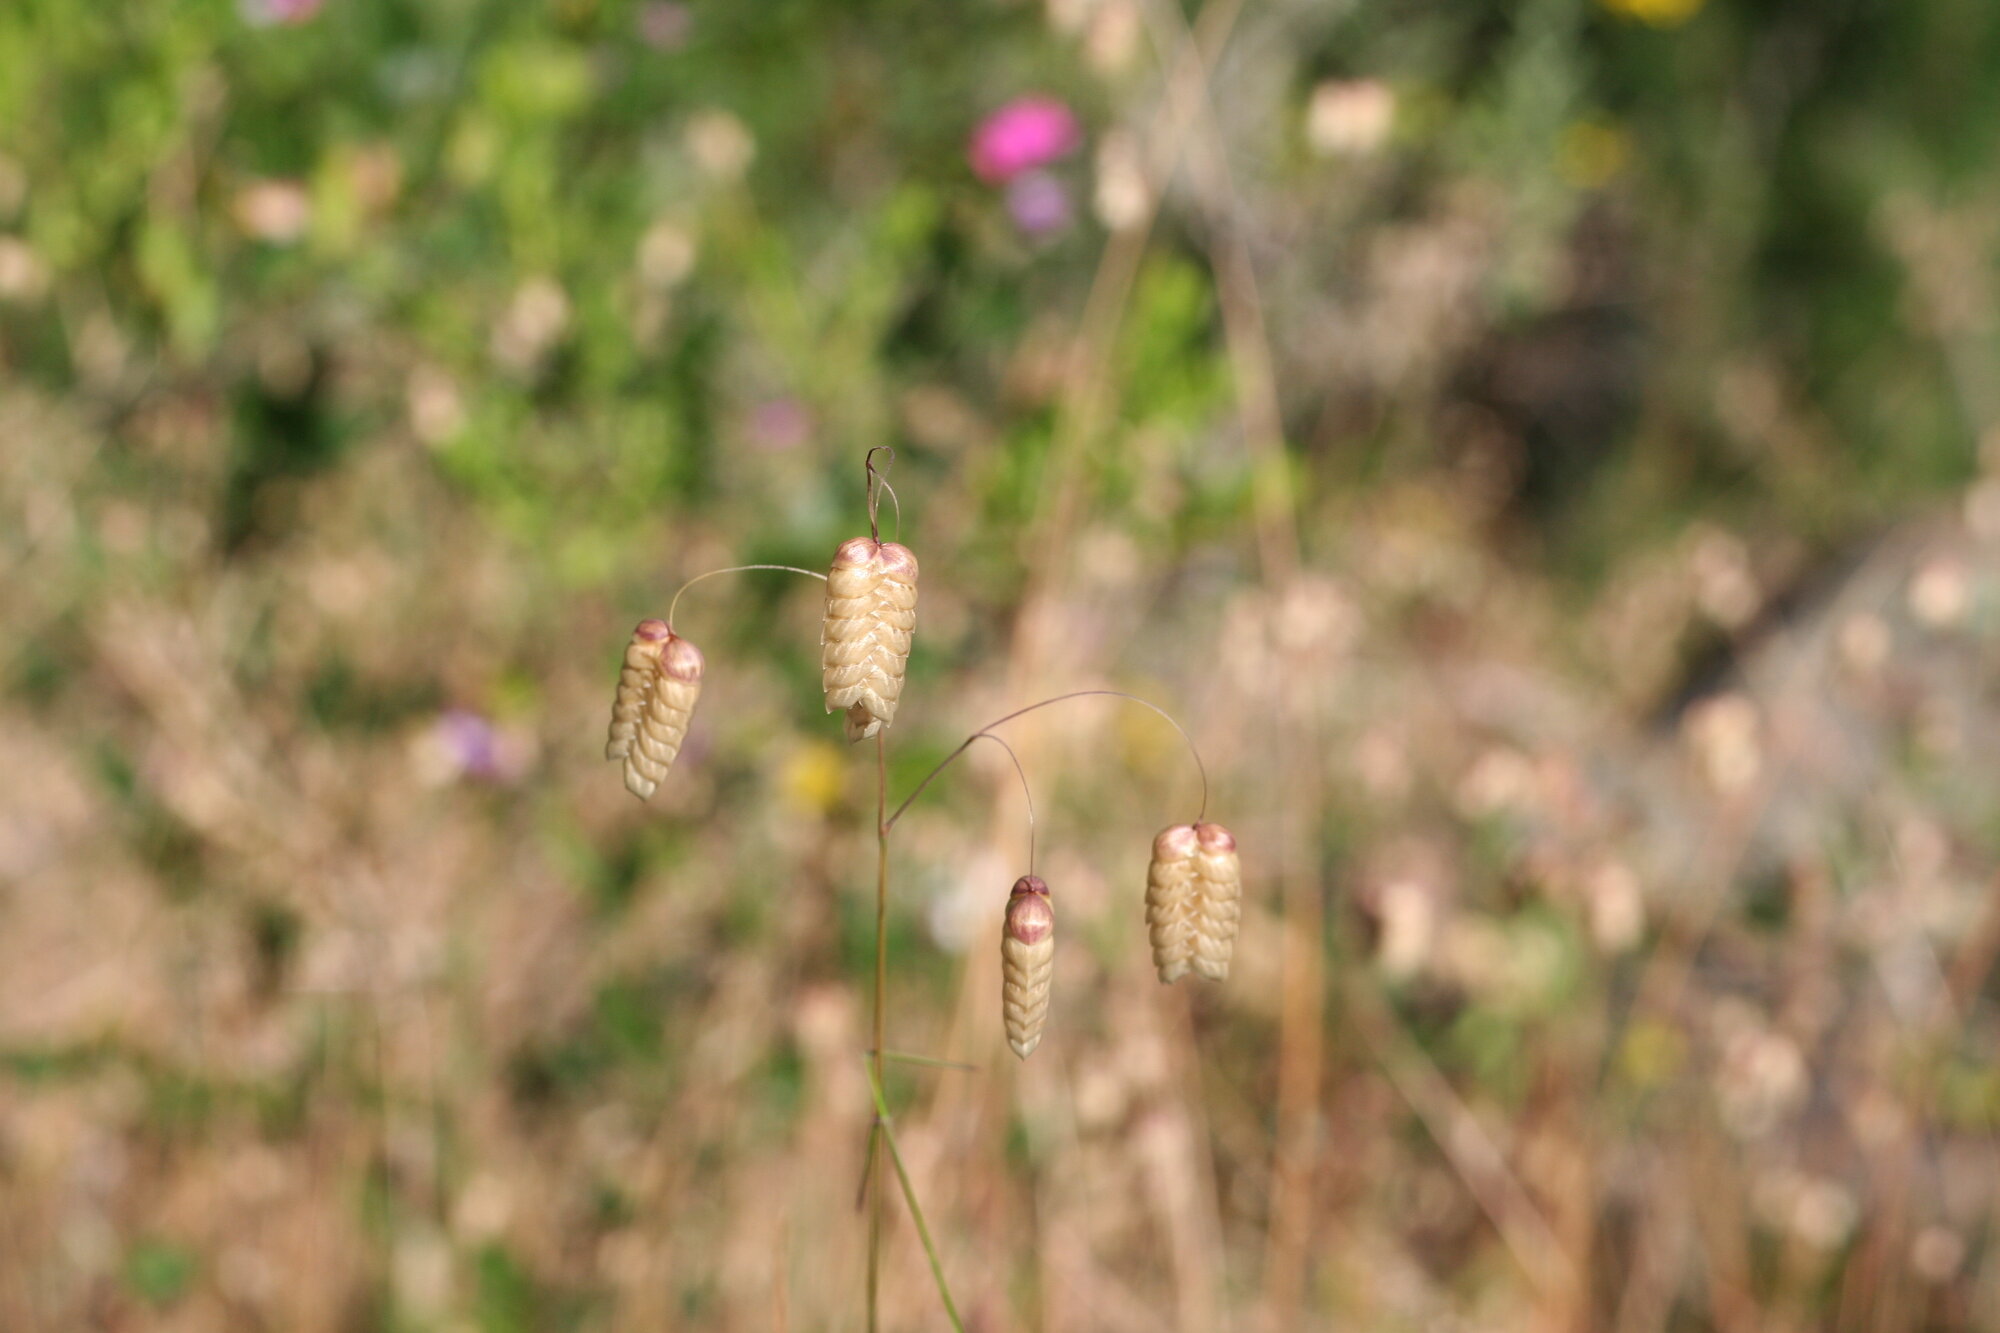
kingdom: Plantae
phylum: Tracheophyta
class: Liliopsida
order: Poales
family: Poaceae
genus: Briza
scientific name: Briza maxima
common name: Big quakinggrass
